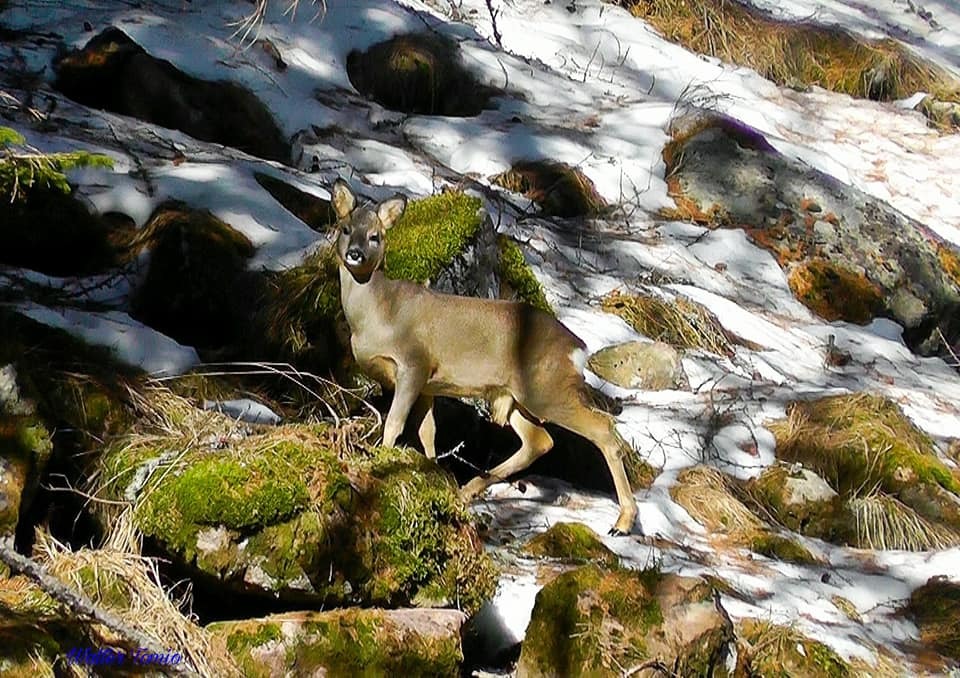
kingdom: Animalia
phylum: Chordata
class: Mammalia
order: Artiodactyla
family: Cervidae
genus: Capreolus
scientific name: Capreolus capreolus
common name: Western roe deer
